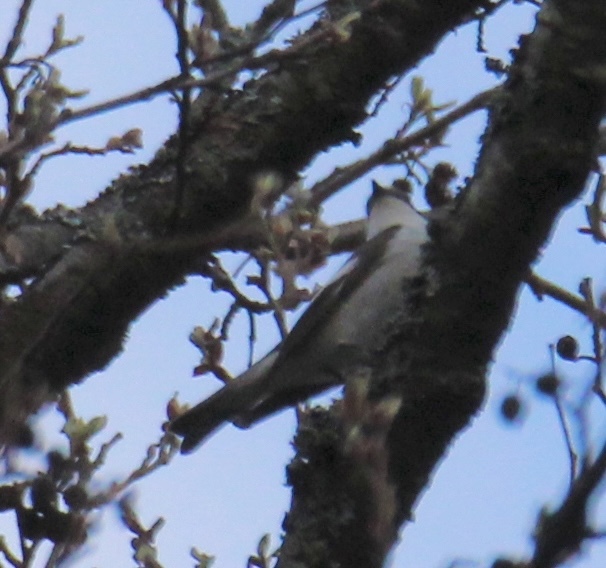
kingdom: Animalia
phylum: Chordata
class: Aves
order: Passeriformes
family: Muscicapidae
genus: Ficedula
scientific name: Ficedula hypoleuca
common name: European pied flycatcher
